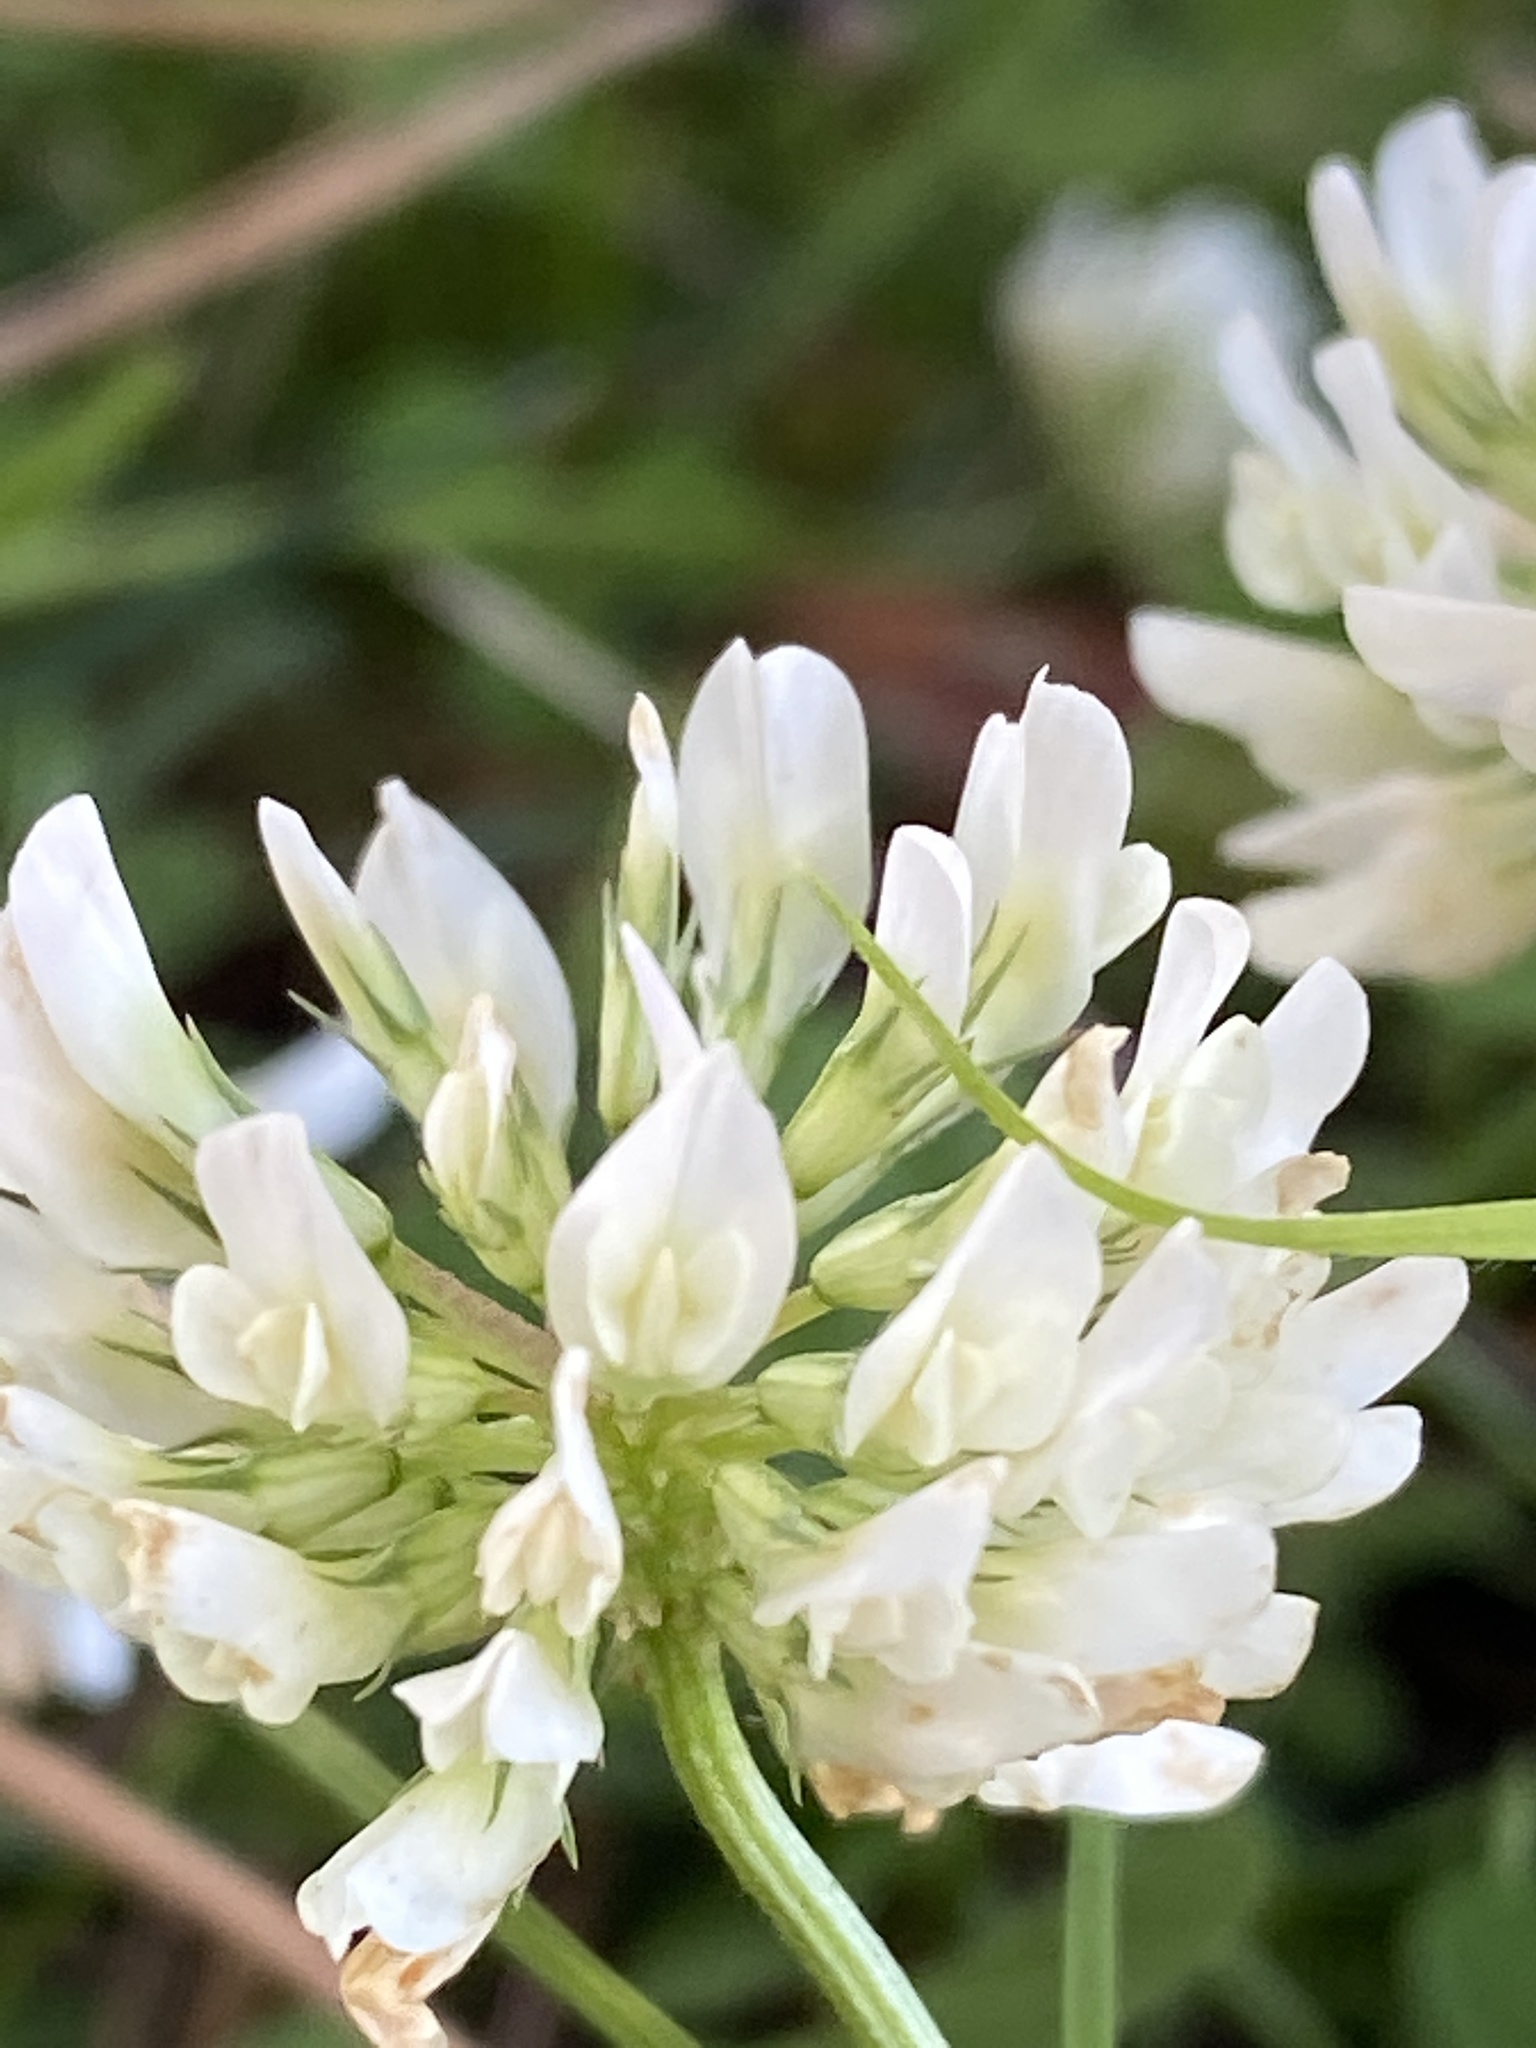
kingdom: Plantae
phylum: Tracheophyta
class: Magnoliopsida
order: Fabales
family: Fabaceae
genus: Trifolium
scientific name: Trifolium repens
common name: White clover
